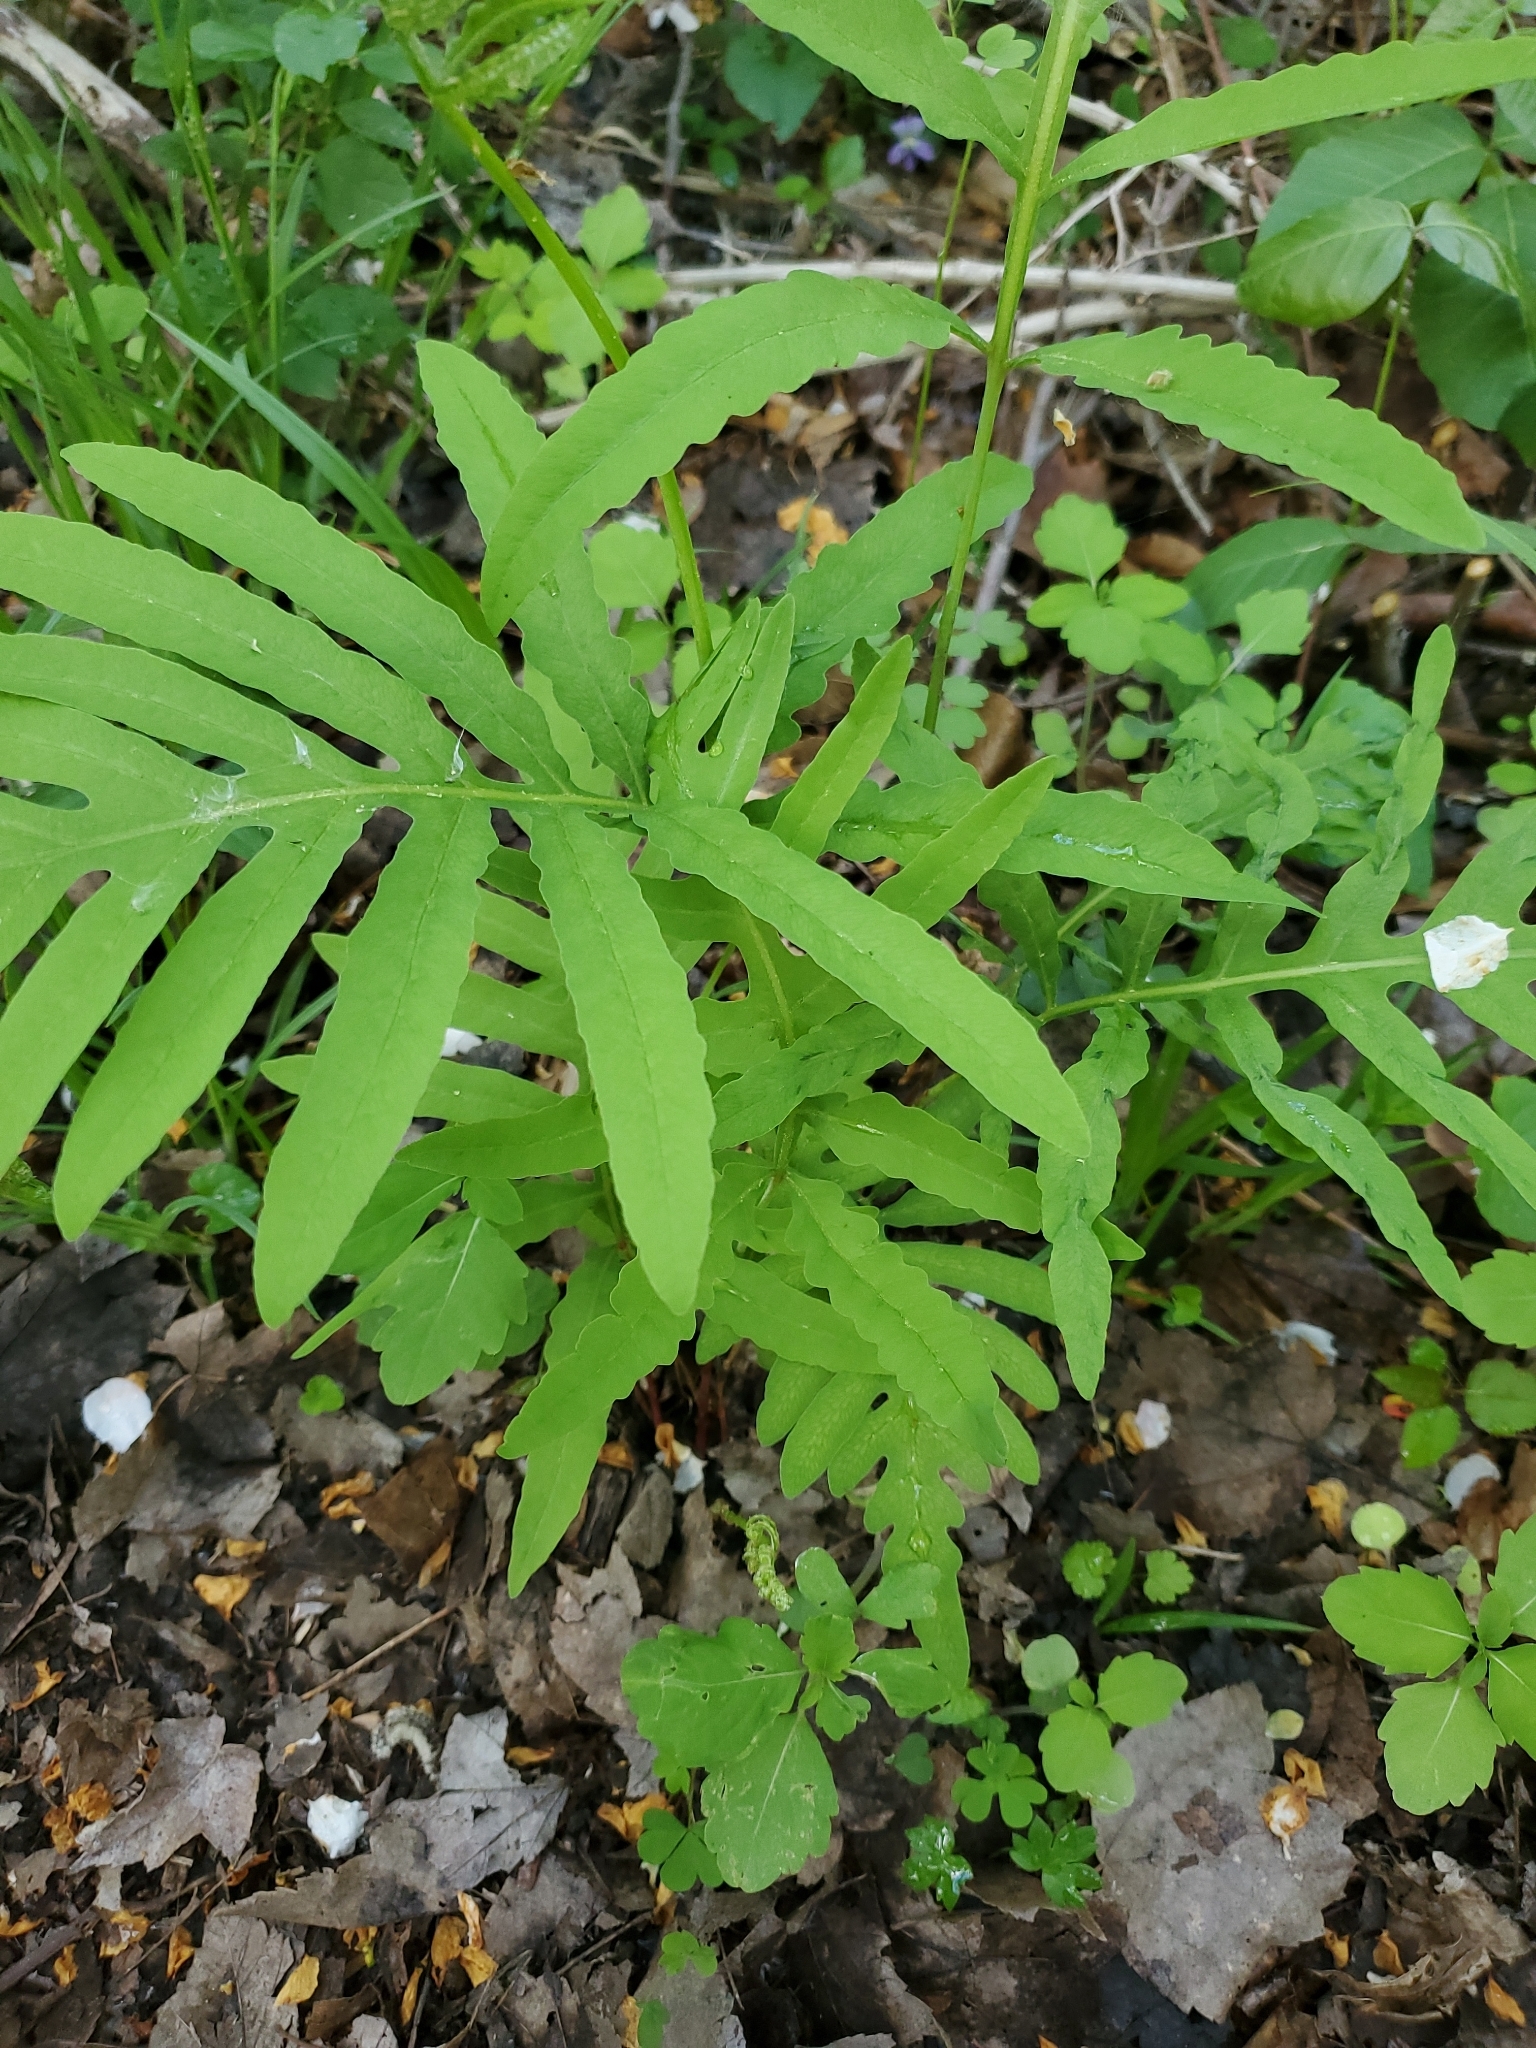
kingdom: Plantae
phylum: Tracheophyta
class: Polypodiopsida
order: Polypodiales
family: Onocleaceae
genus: Onoclea
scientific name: Onoclea sensibilis
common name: Sensitive fern
